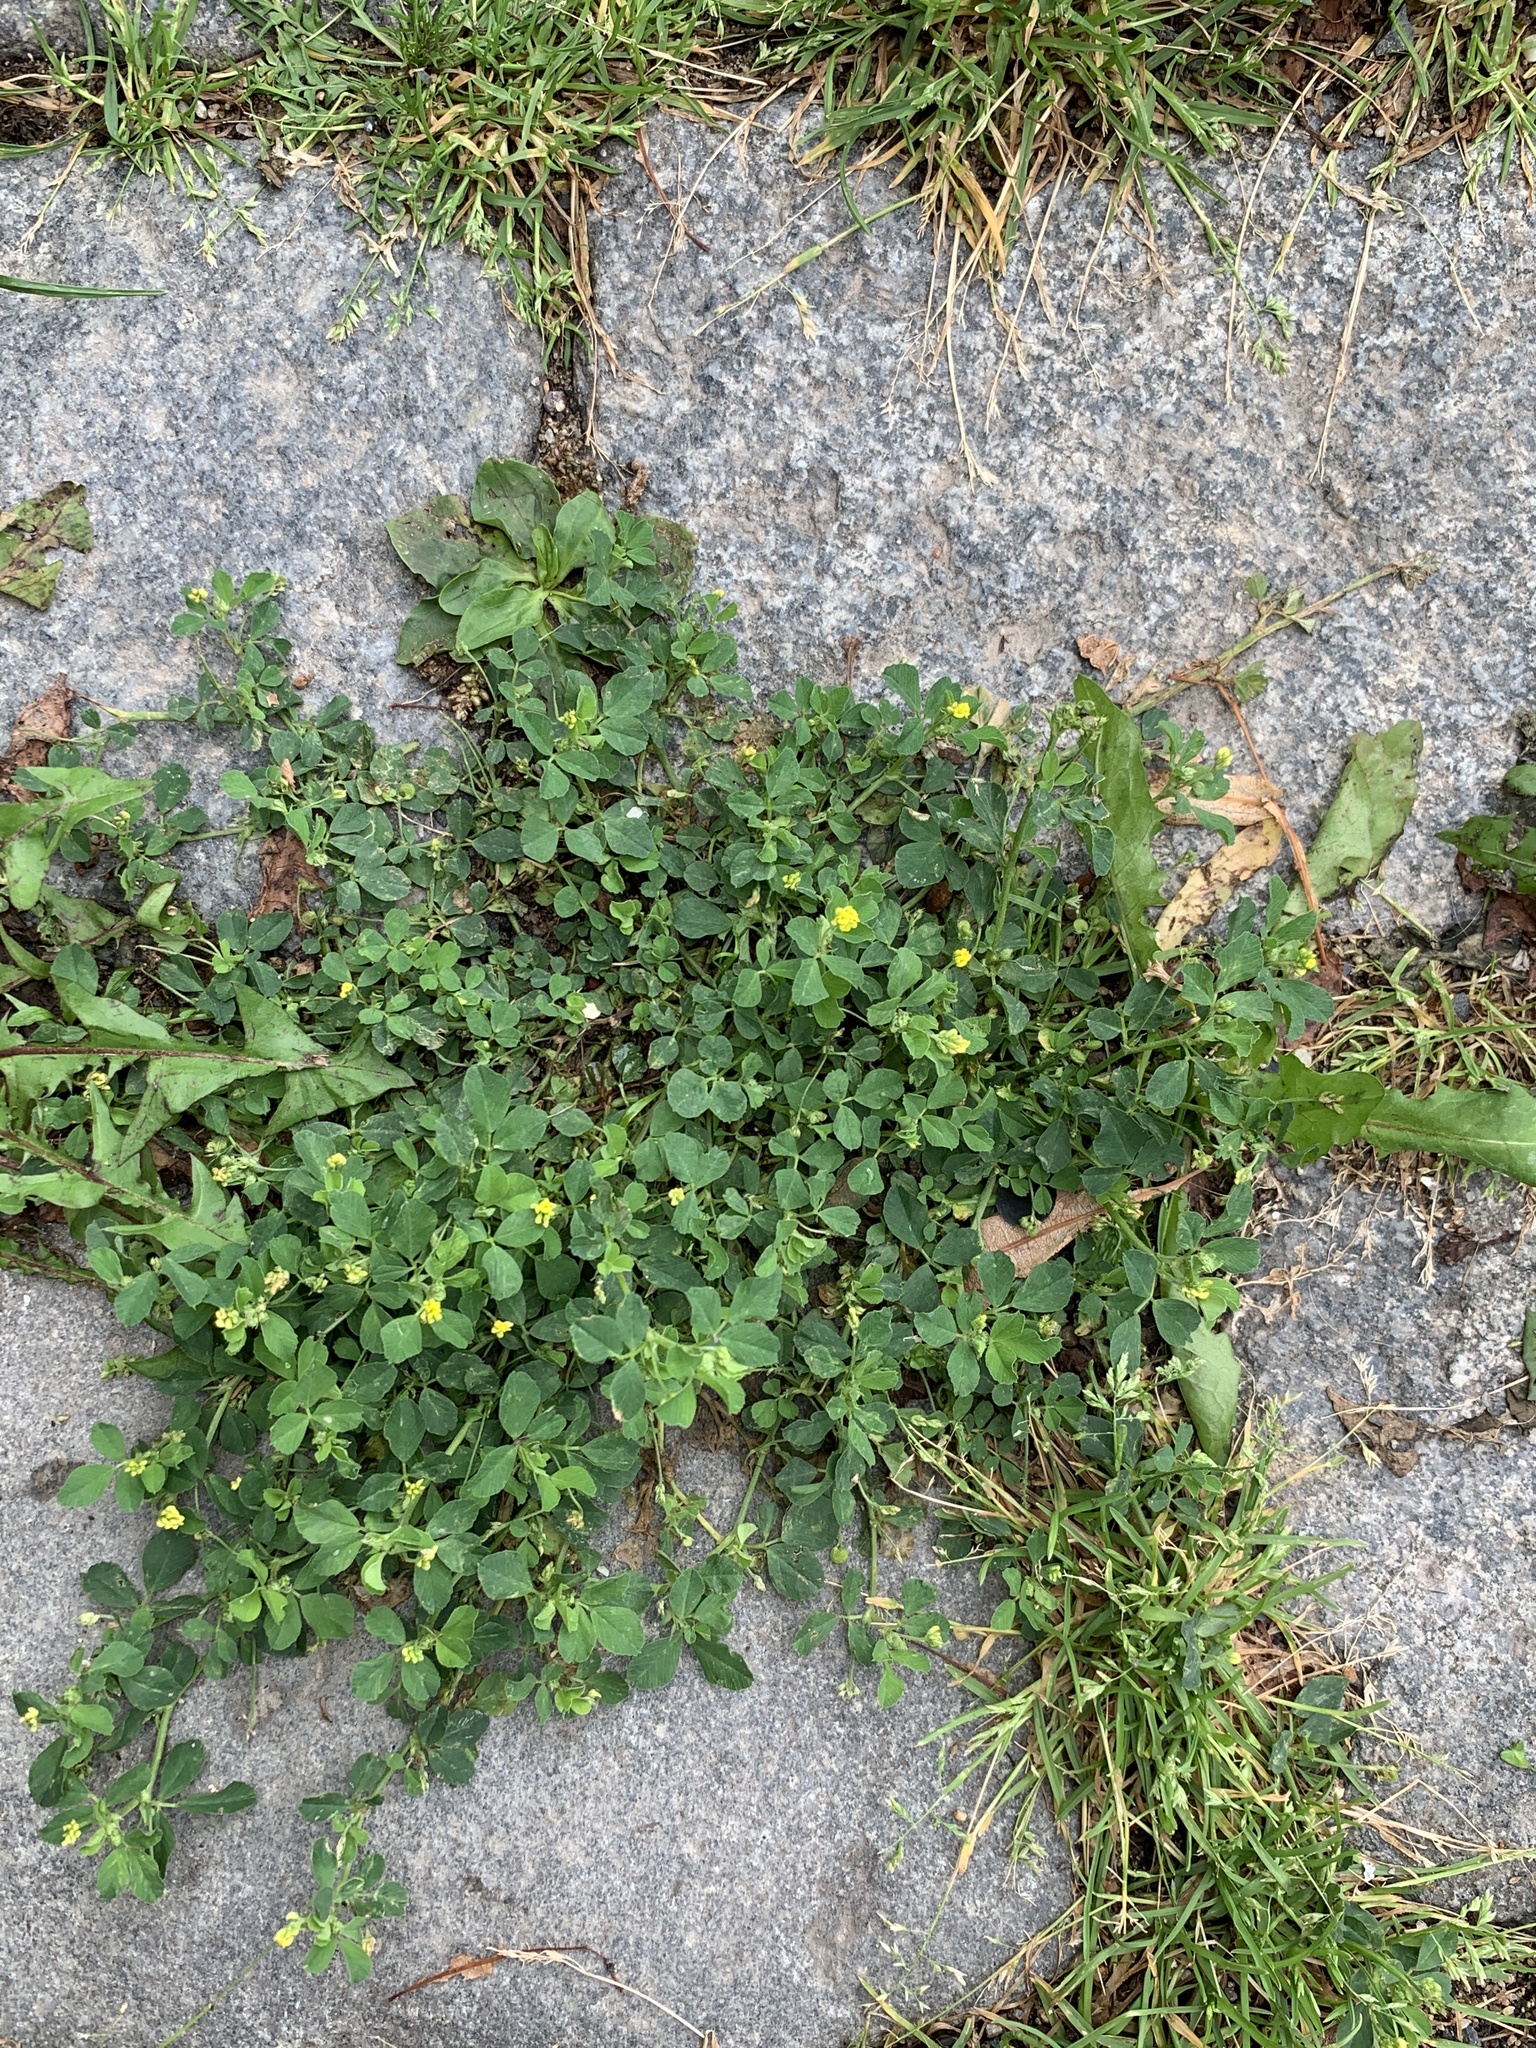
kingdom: Plantae
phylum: Tracheophyta
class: Magnoliopsida
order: Fabales
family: Fabaceae
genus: Medicago
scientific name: Medicago lupulina
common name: Black medick
